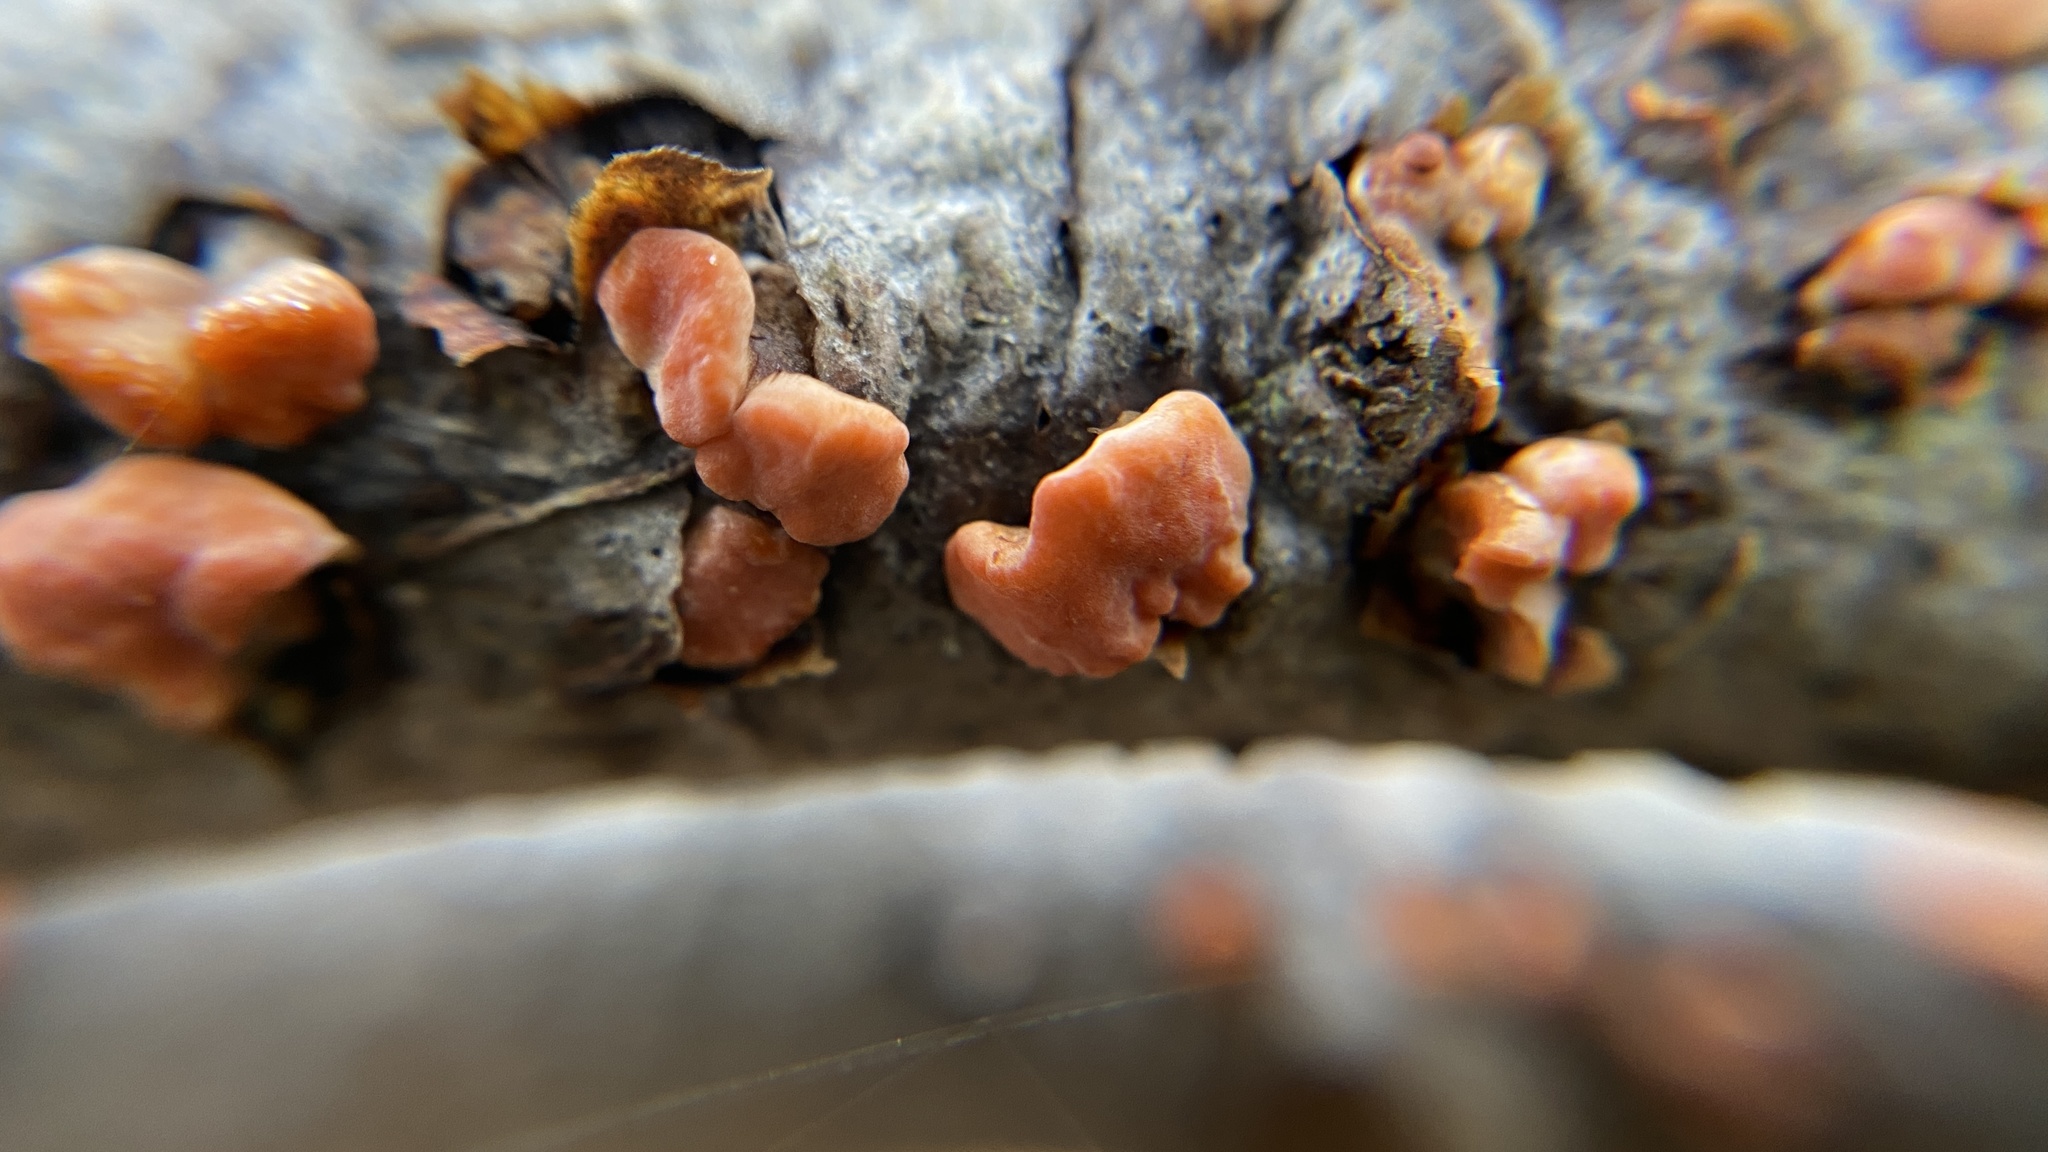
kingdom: Fungi
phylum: Basidiomycota
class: Agaricomycetes
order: Russulales
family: Peniophoraceae
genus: Peniophora
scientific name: Peniophora rufa
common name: Red tree brain fungus
